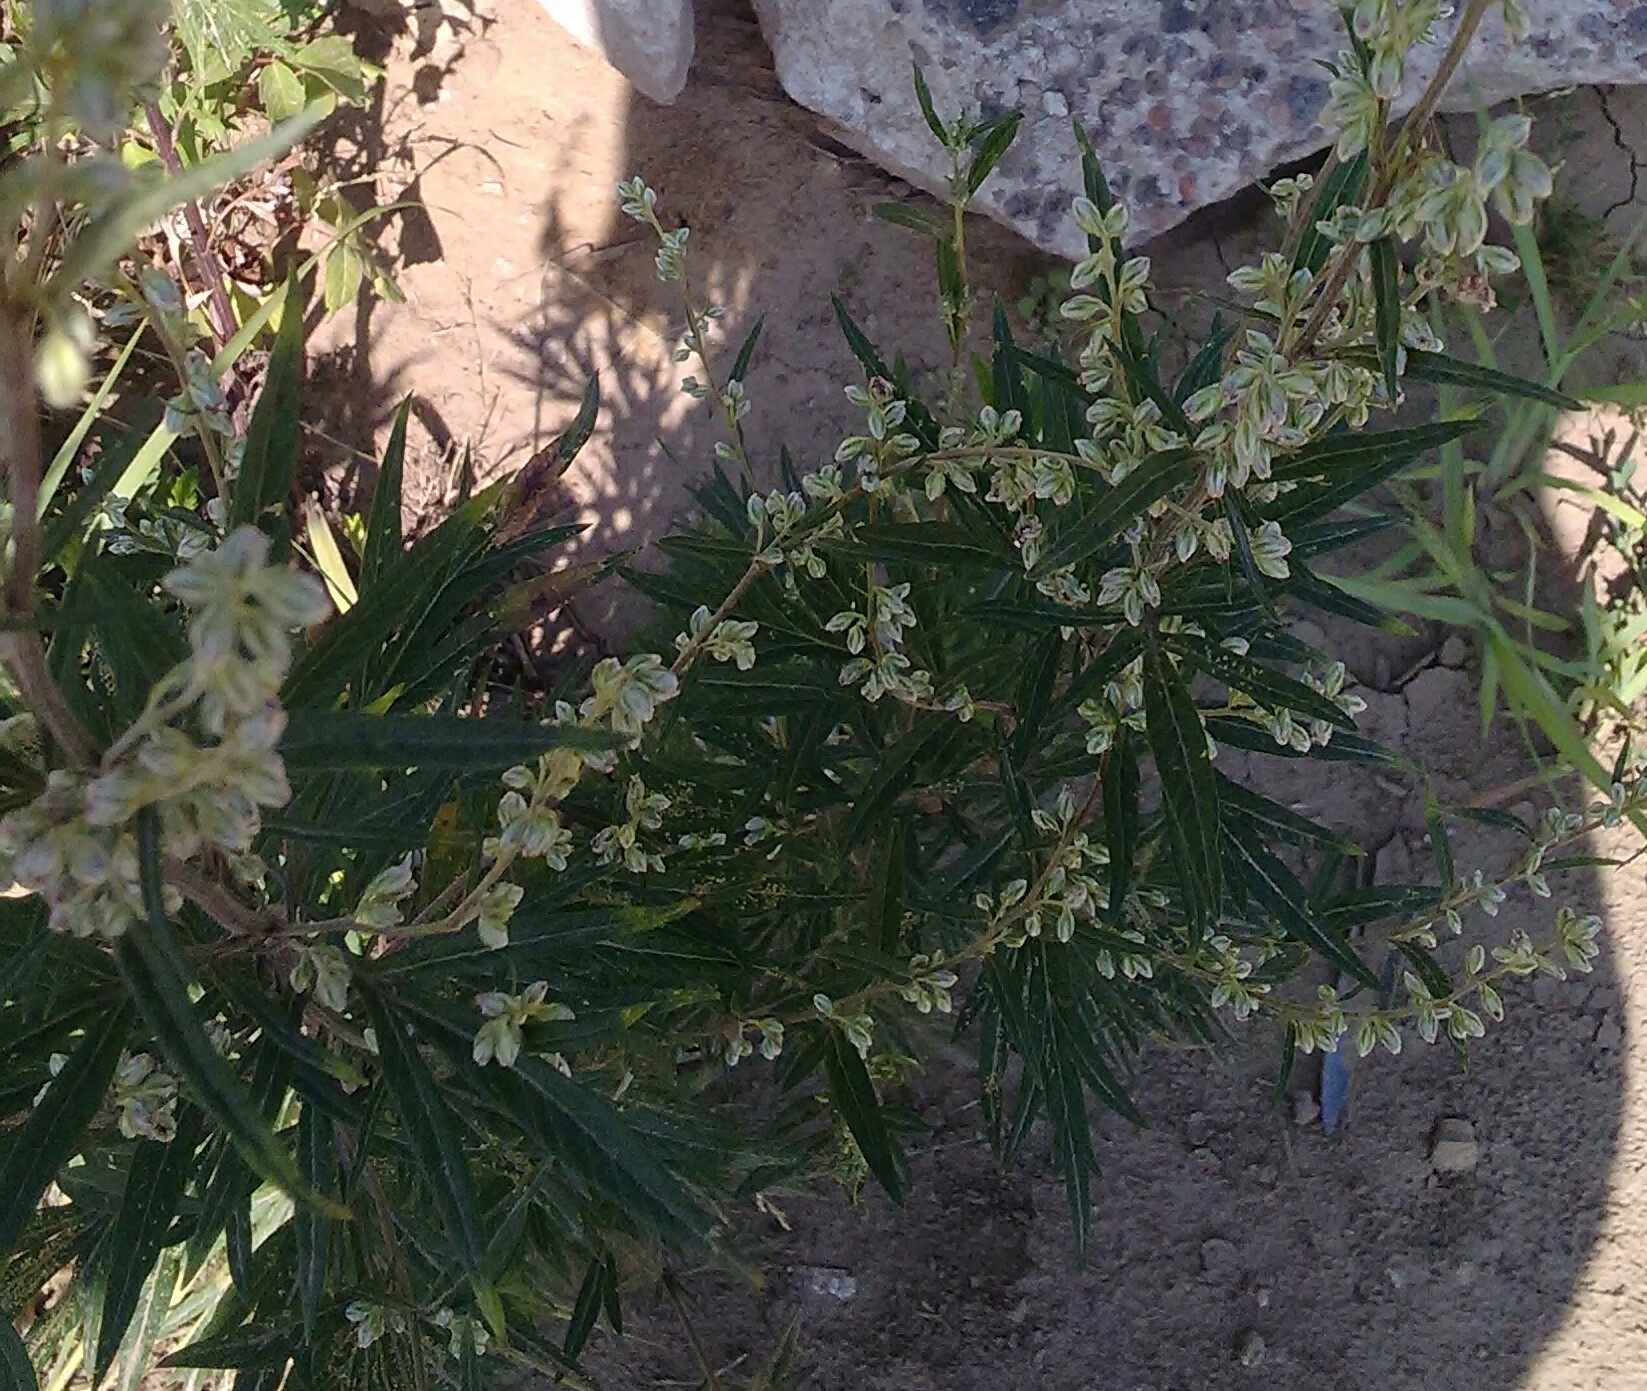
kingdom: Plantae
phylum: Tracheophyta
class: Magnoliopsida
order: Asterales
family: Asteraceae
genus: Artemisia
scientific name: Artemisia vulgaris
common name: Mugwort
